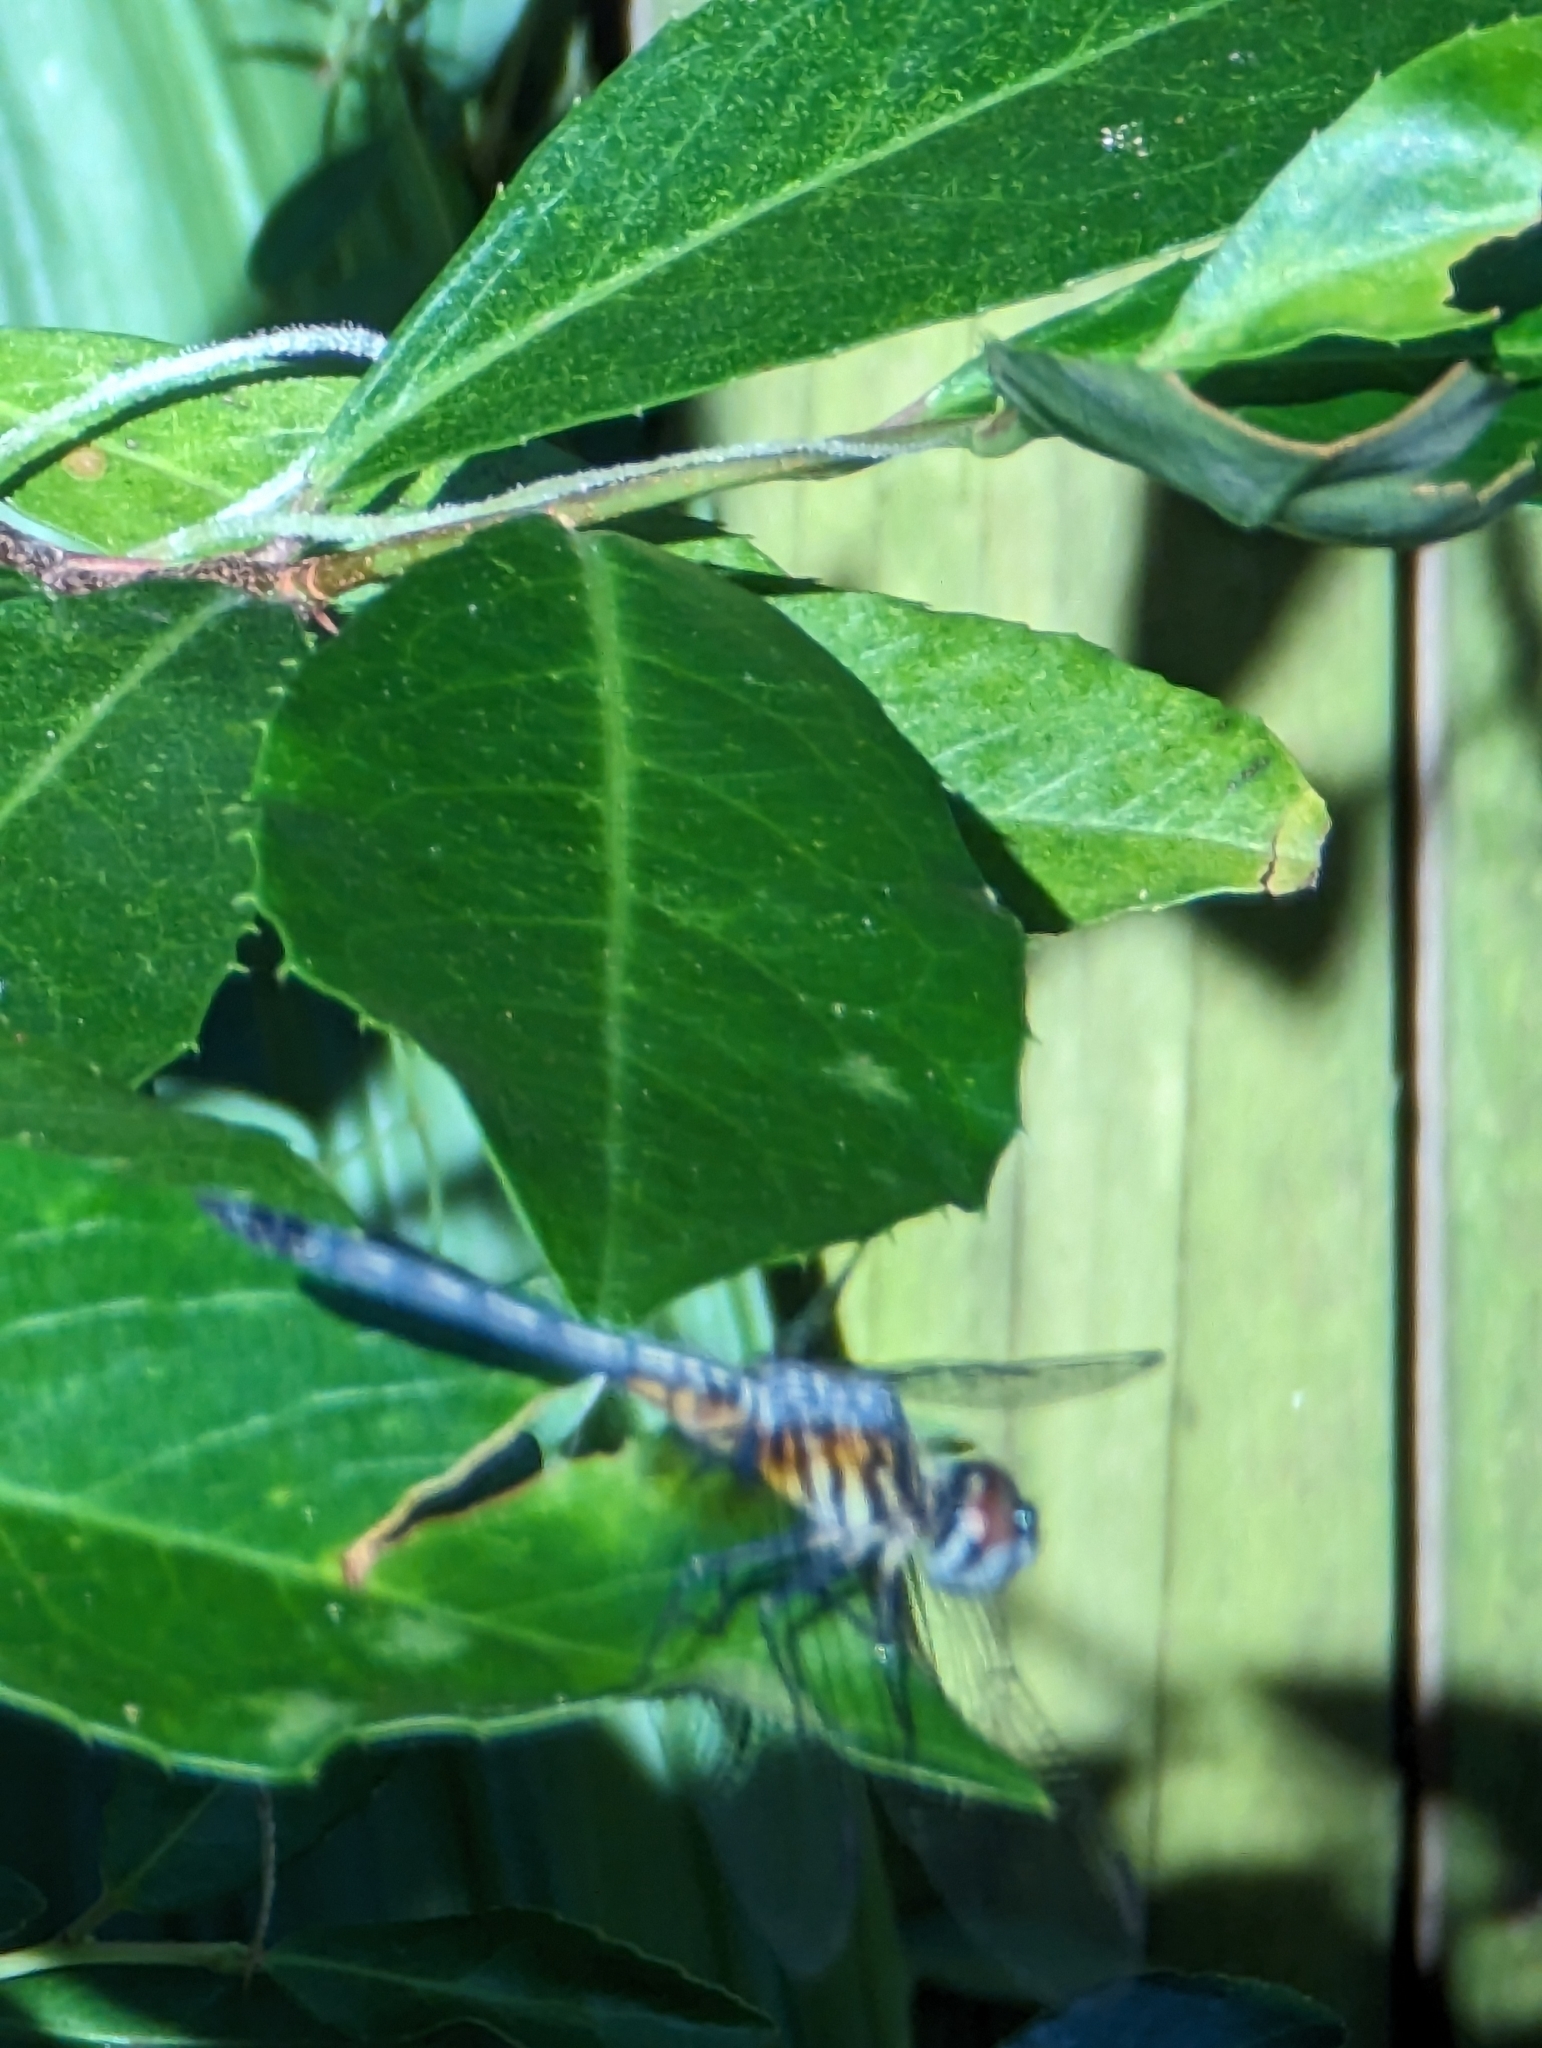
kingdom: Animalia
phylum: Arthropoda
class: Insecta
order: Odonata
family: Libellulidae
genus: Pachydiplax
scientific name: Pachydiplax longipennis
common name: Blue dasher
